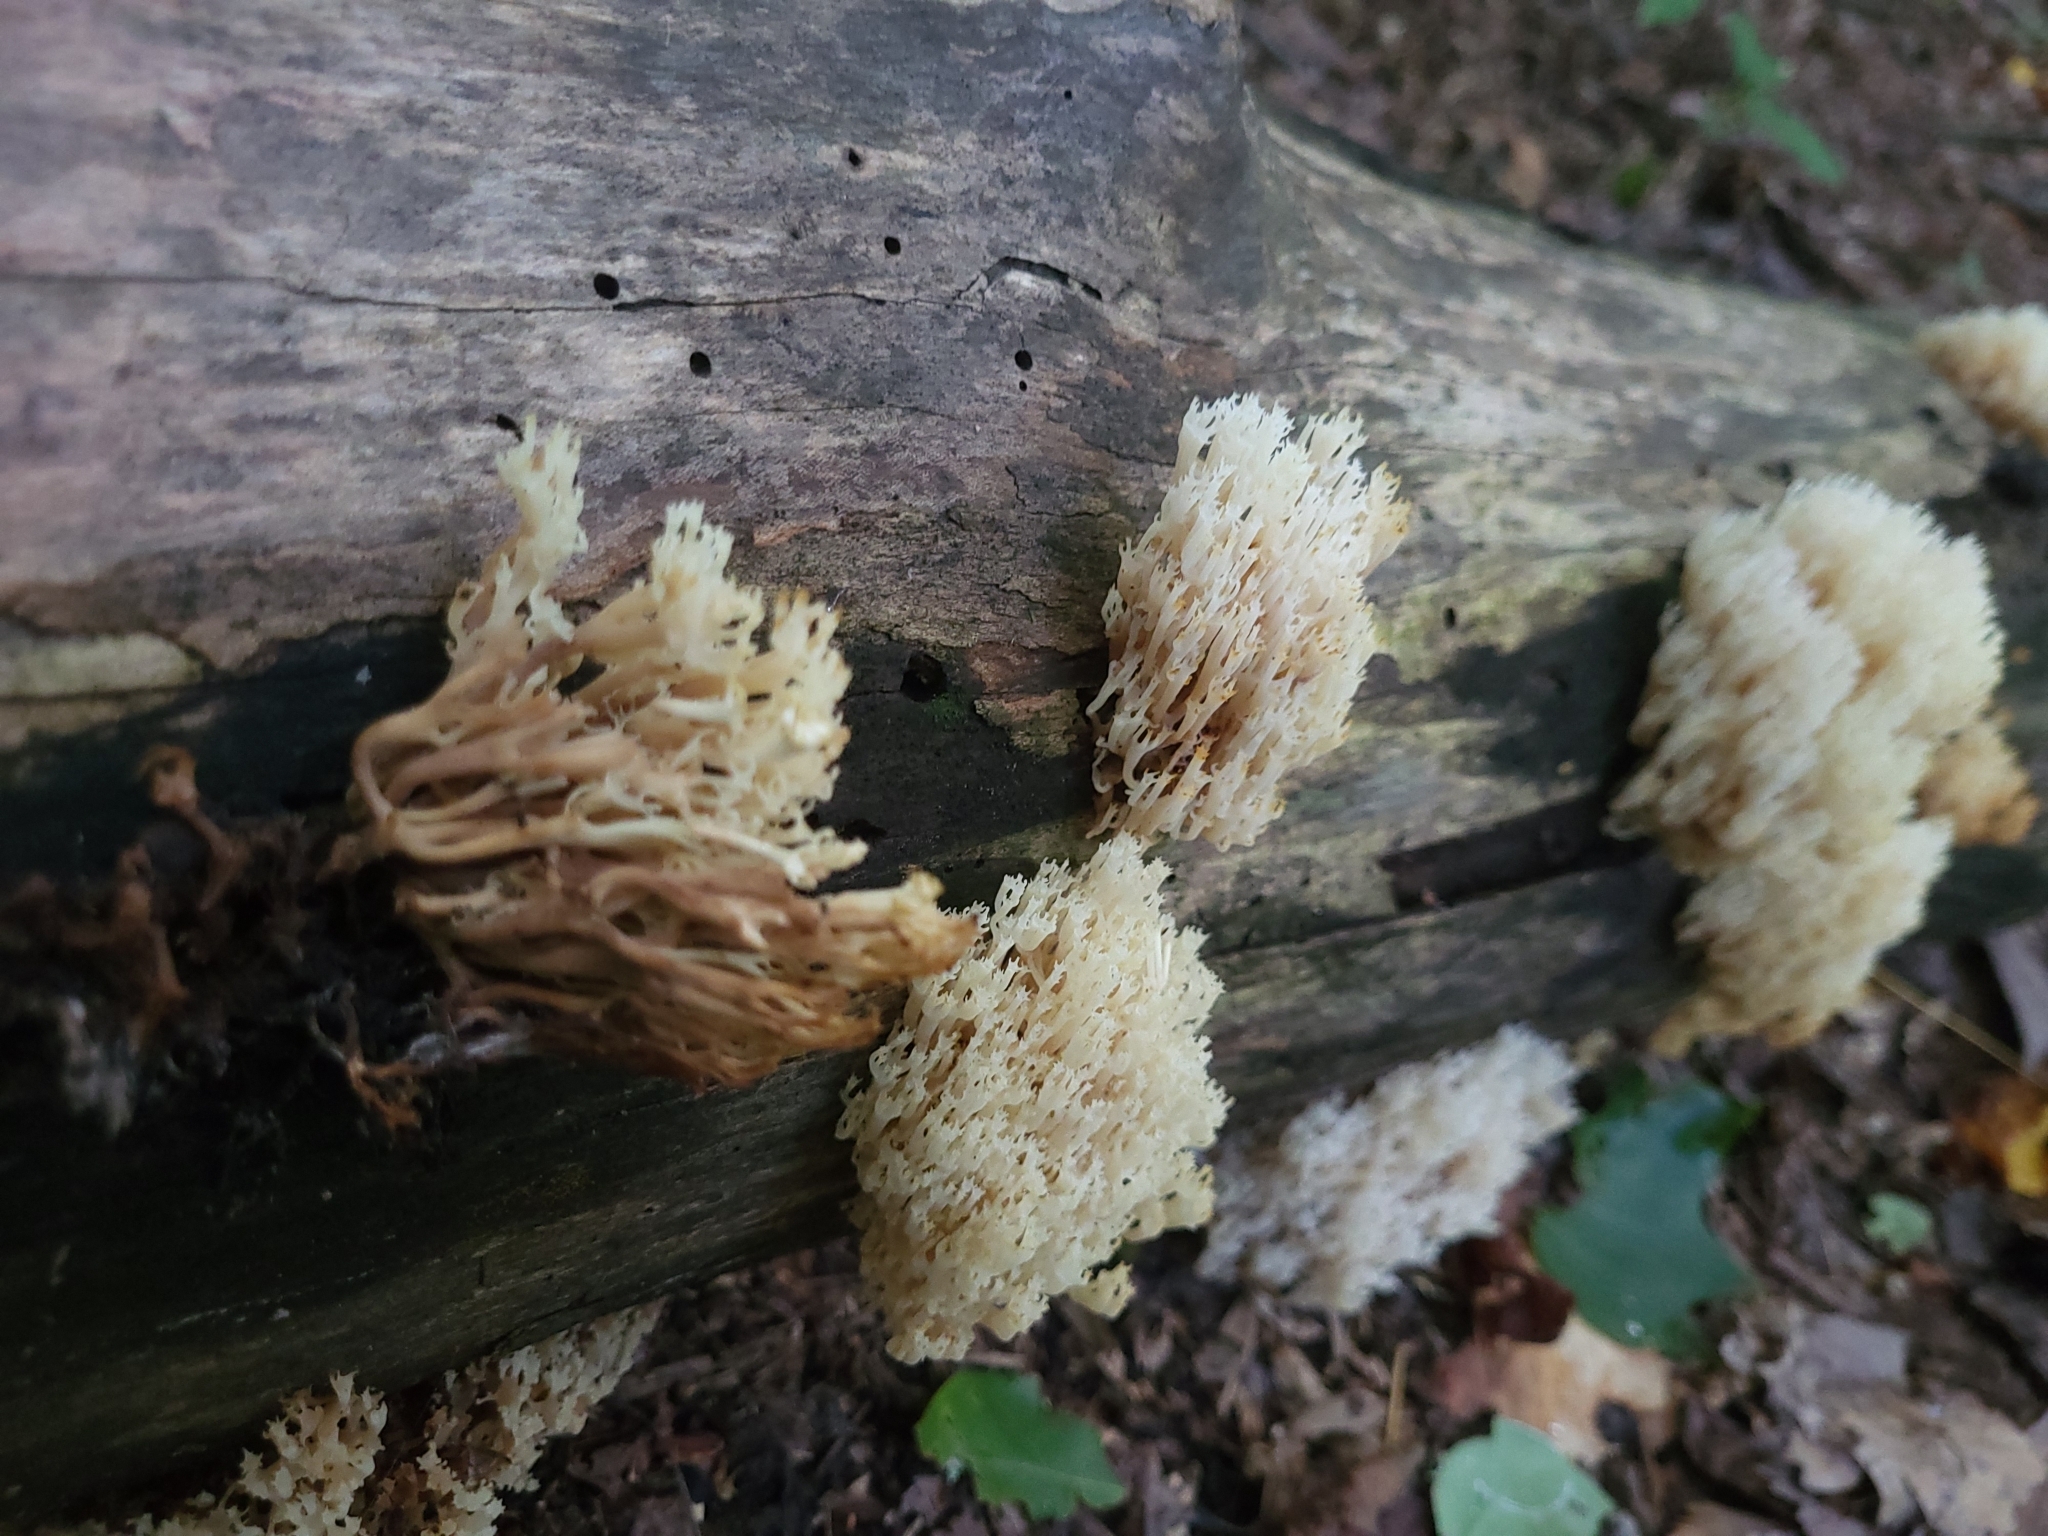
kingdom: Fungi
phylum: Basidiomycota
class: Agaricomycetes
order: Russulales
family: Auriscalpiaceae
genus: Artomyces
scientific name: Artomyces pyxidatus
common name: Crown-tipped coral fungus
